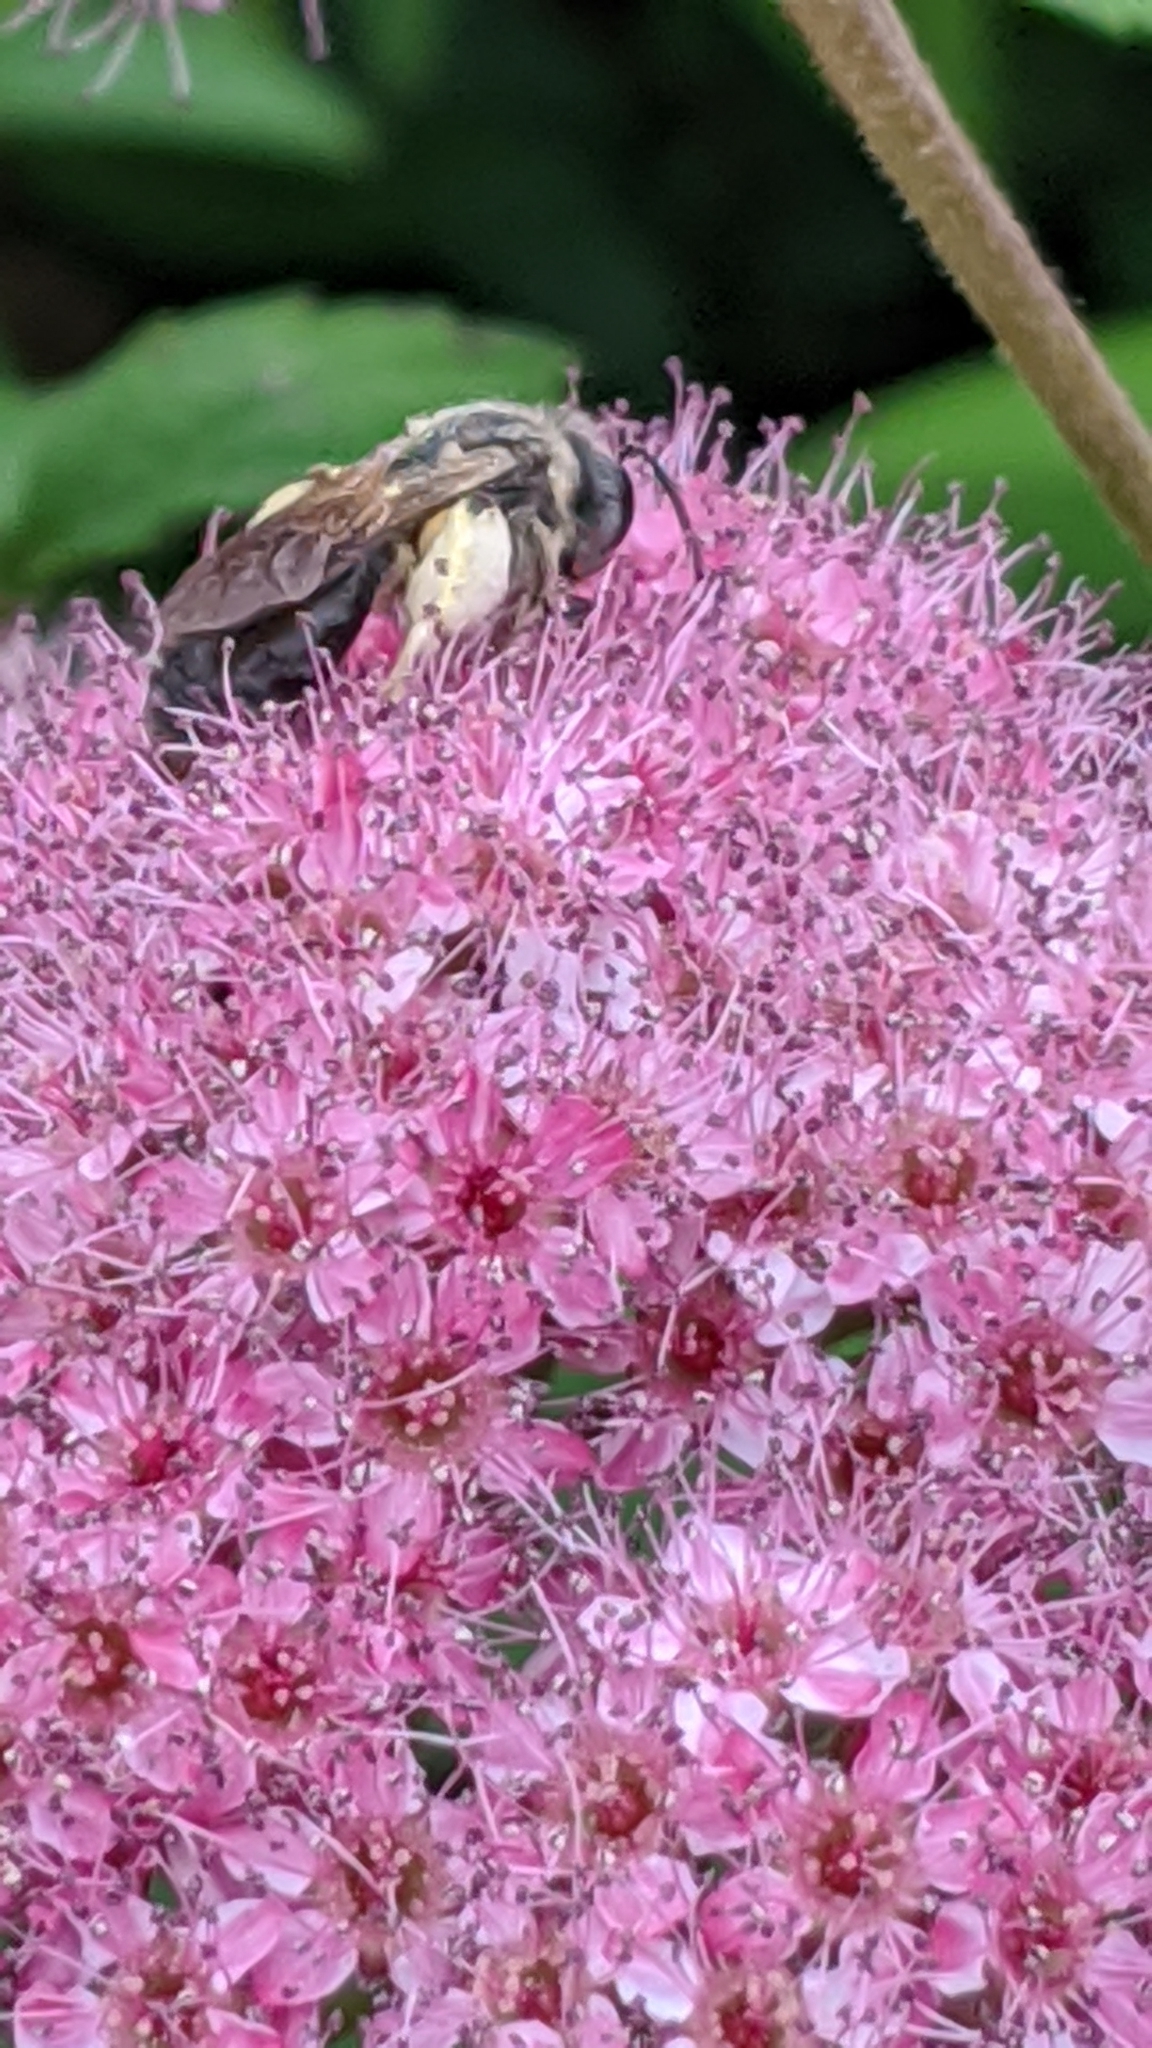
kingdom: Animalia
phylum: Arthropoda
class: Insecta
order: Hymenoptera
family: Andrenidae
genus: Andrena
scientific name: Andrena
